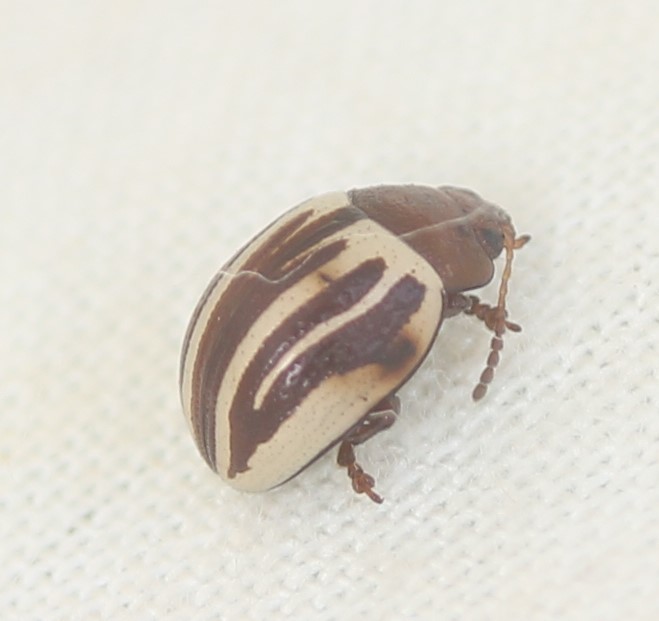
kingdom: Animalia
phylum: Arthropoda
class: Insecta
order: Coleoptera
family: Chrysomelidae
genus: Calligrapha
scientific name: Calligrapha
